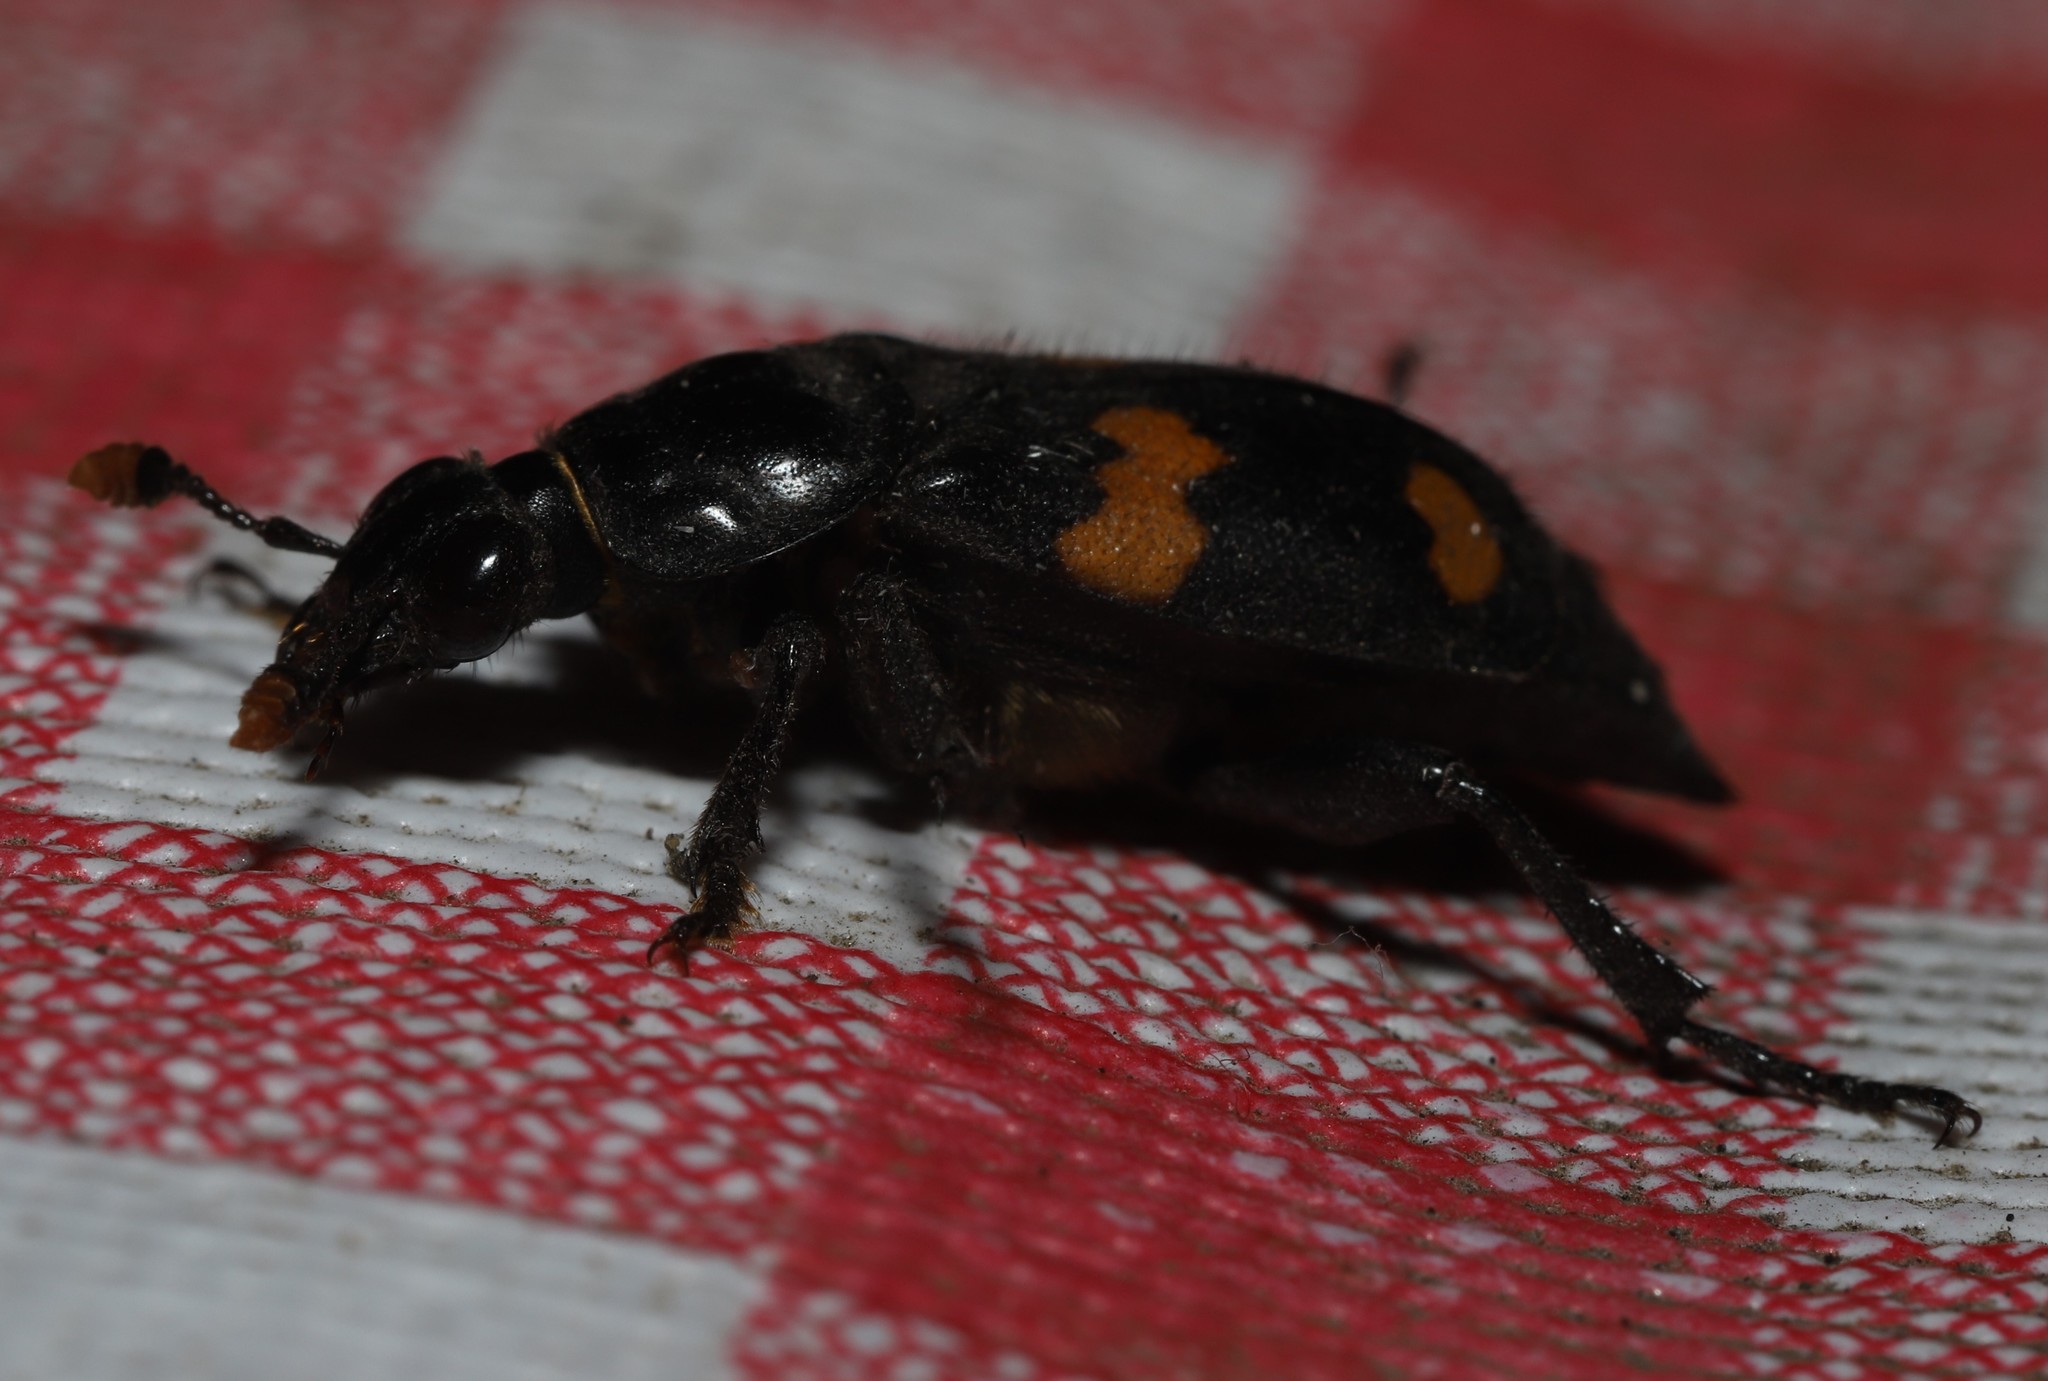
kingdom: Animalia
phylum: Arthropoda
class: Insecta
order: Coleoptera
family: Staphylinidae
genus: Nicrophorus
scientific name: Nicrophorus orbicollis
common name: Roundneck sexton beetle
